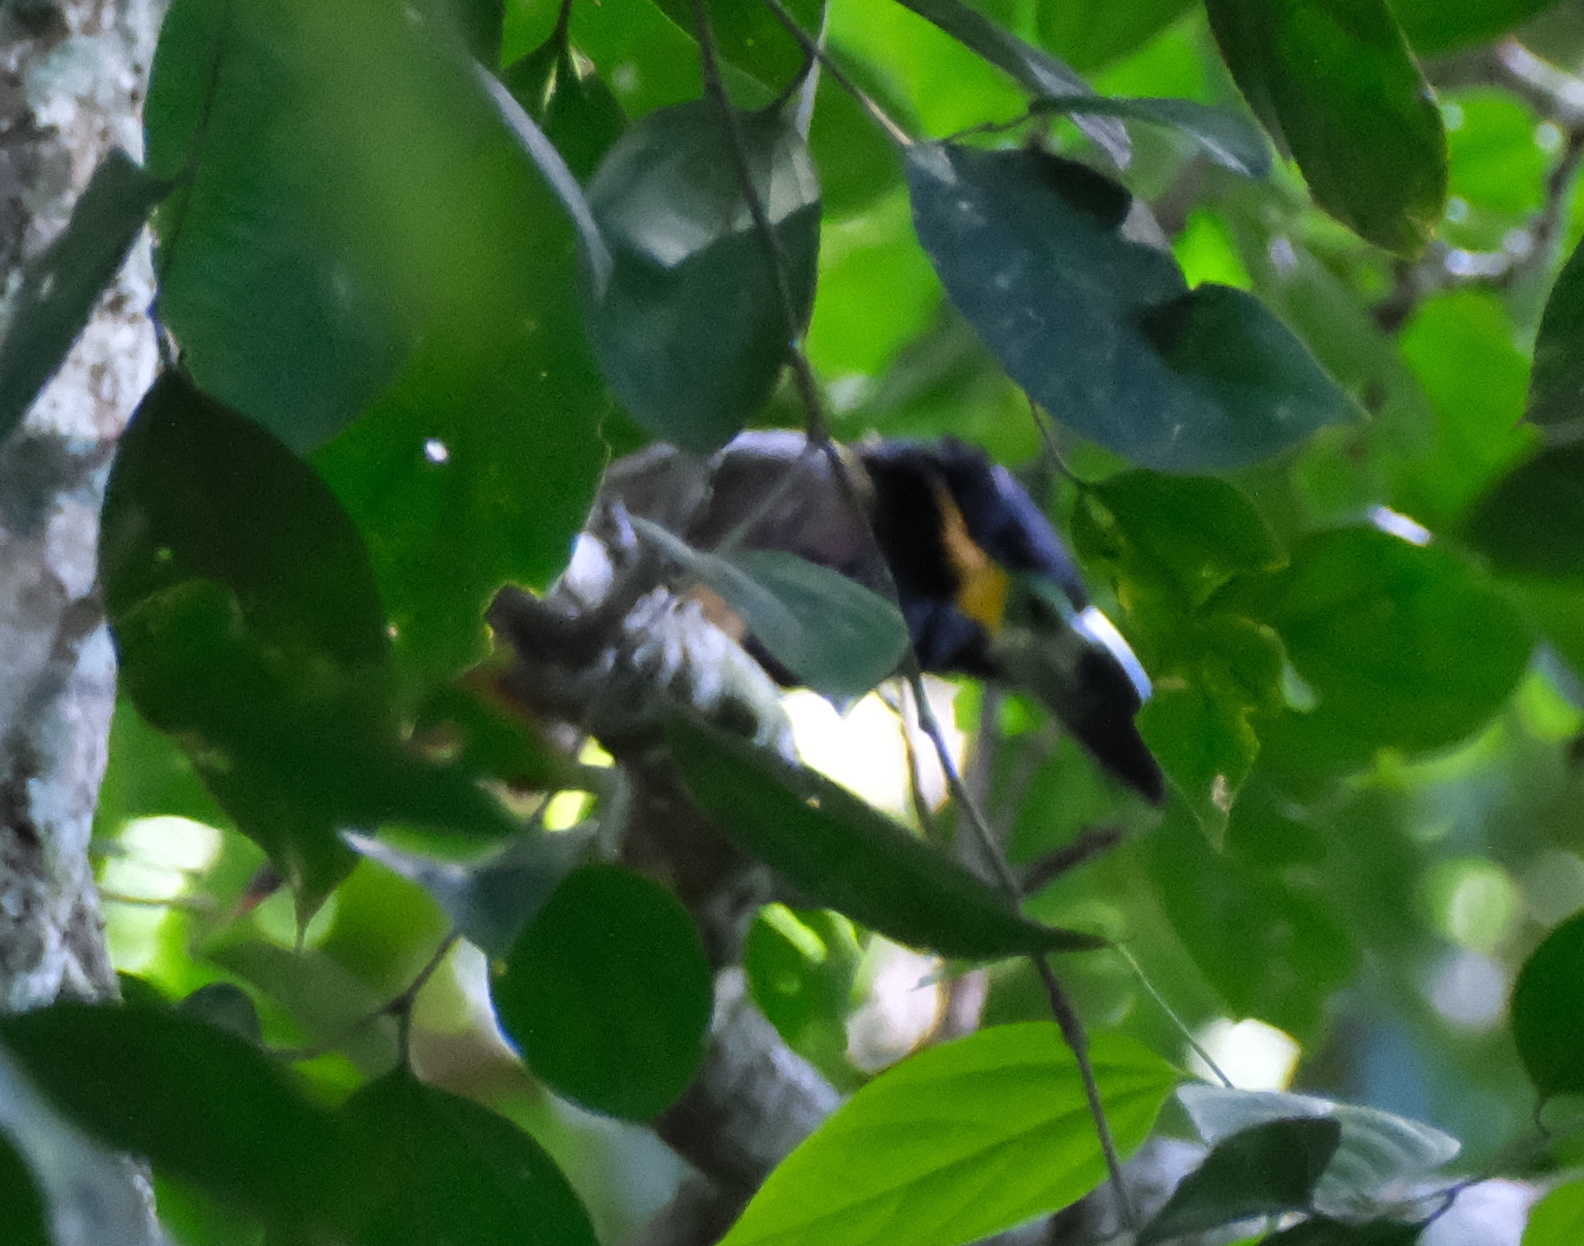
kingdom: Animalia
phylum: Chordata
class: Aves
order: Piciformes
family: Ramphastidae
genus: Selenidera
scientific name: Selenidera reinwardtii
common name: Golden-collared toucanet
